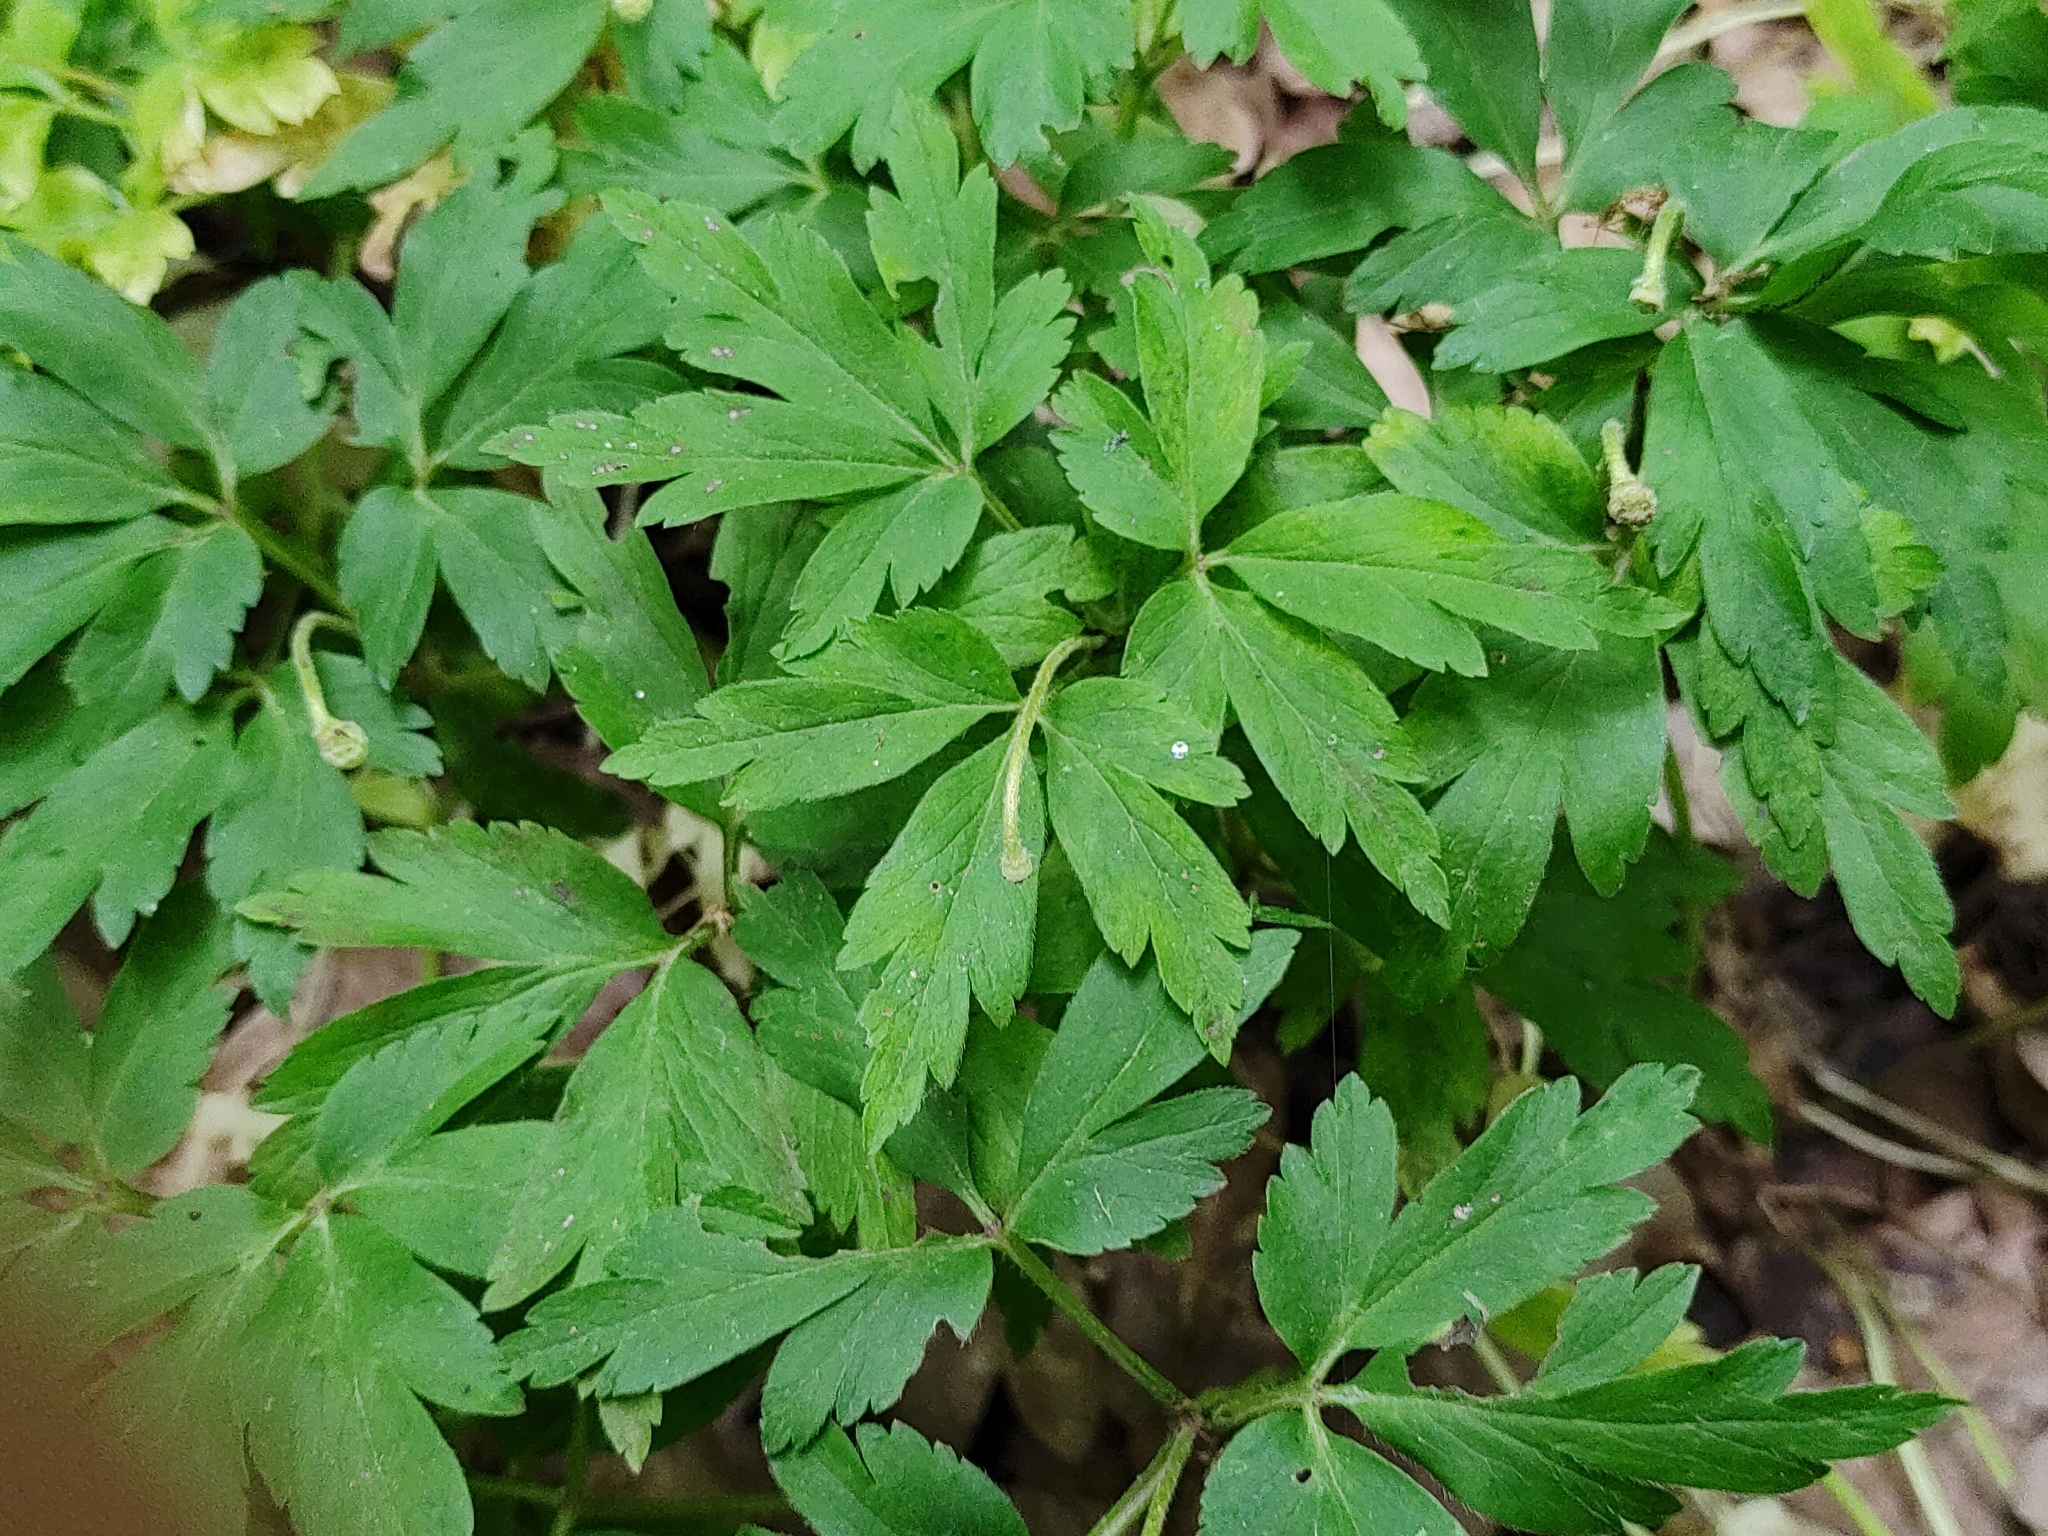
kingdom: Plantae
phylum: Tracheophyta
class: Magnoliopsida
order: Ranunculales
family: Ranunculaceae
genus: Anemone
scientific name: Anemone nemorosa
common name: Wood anemone
